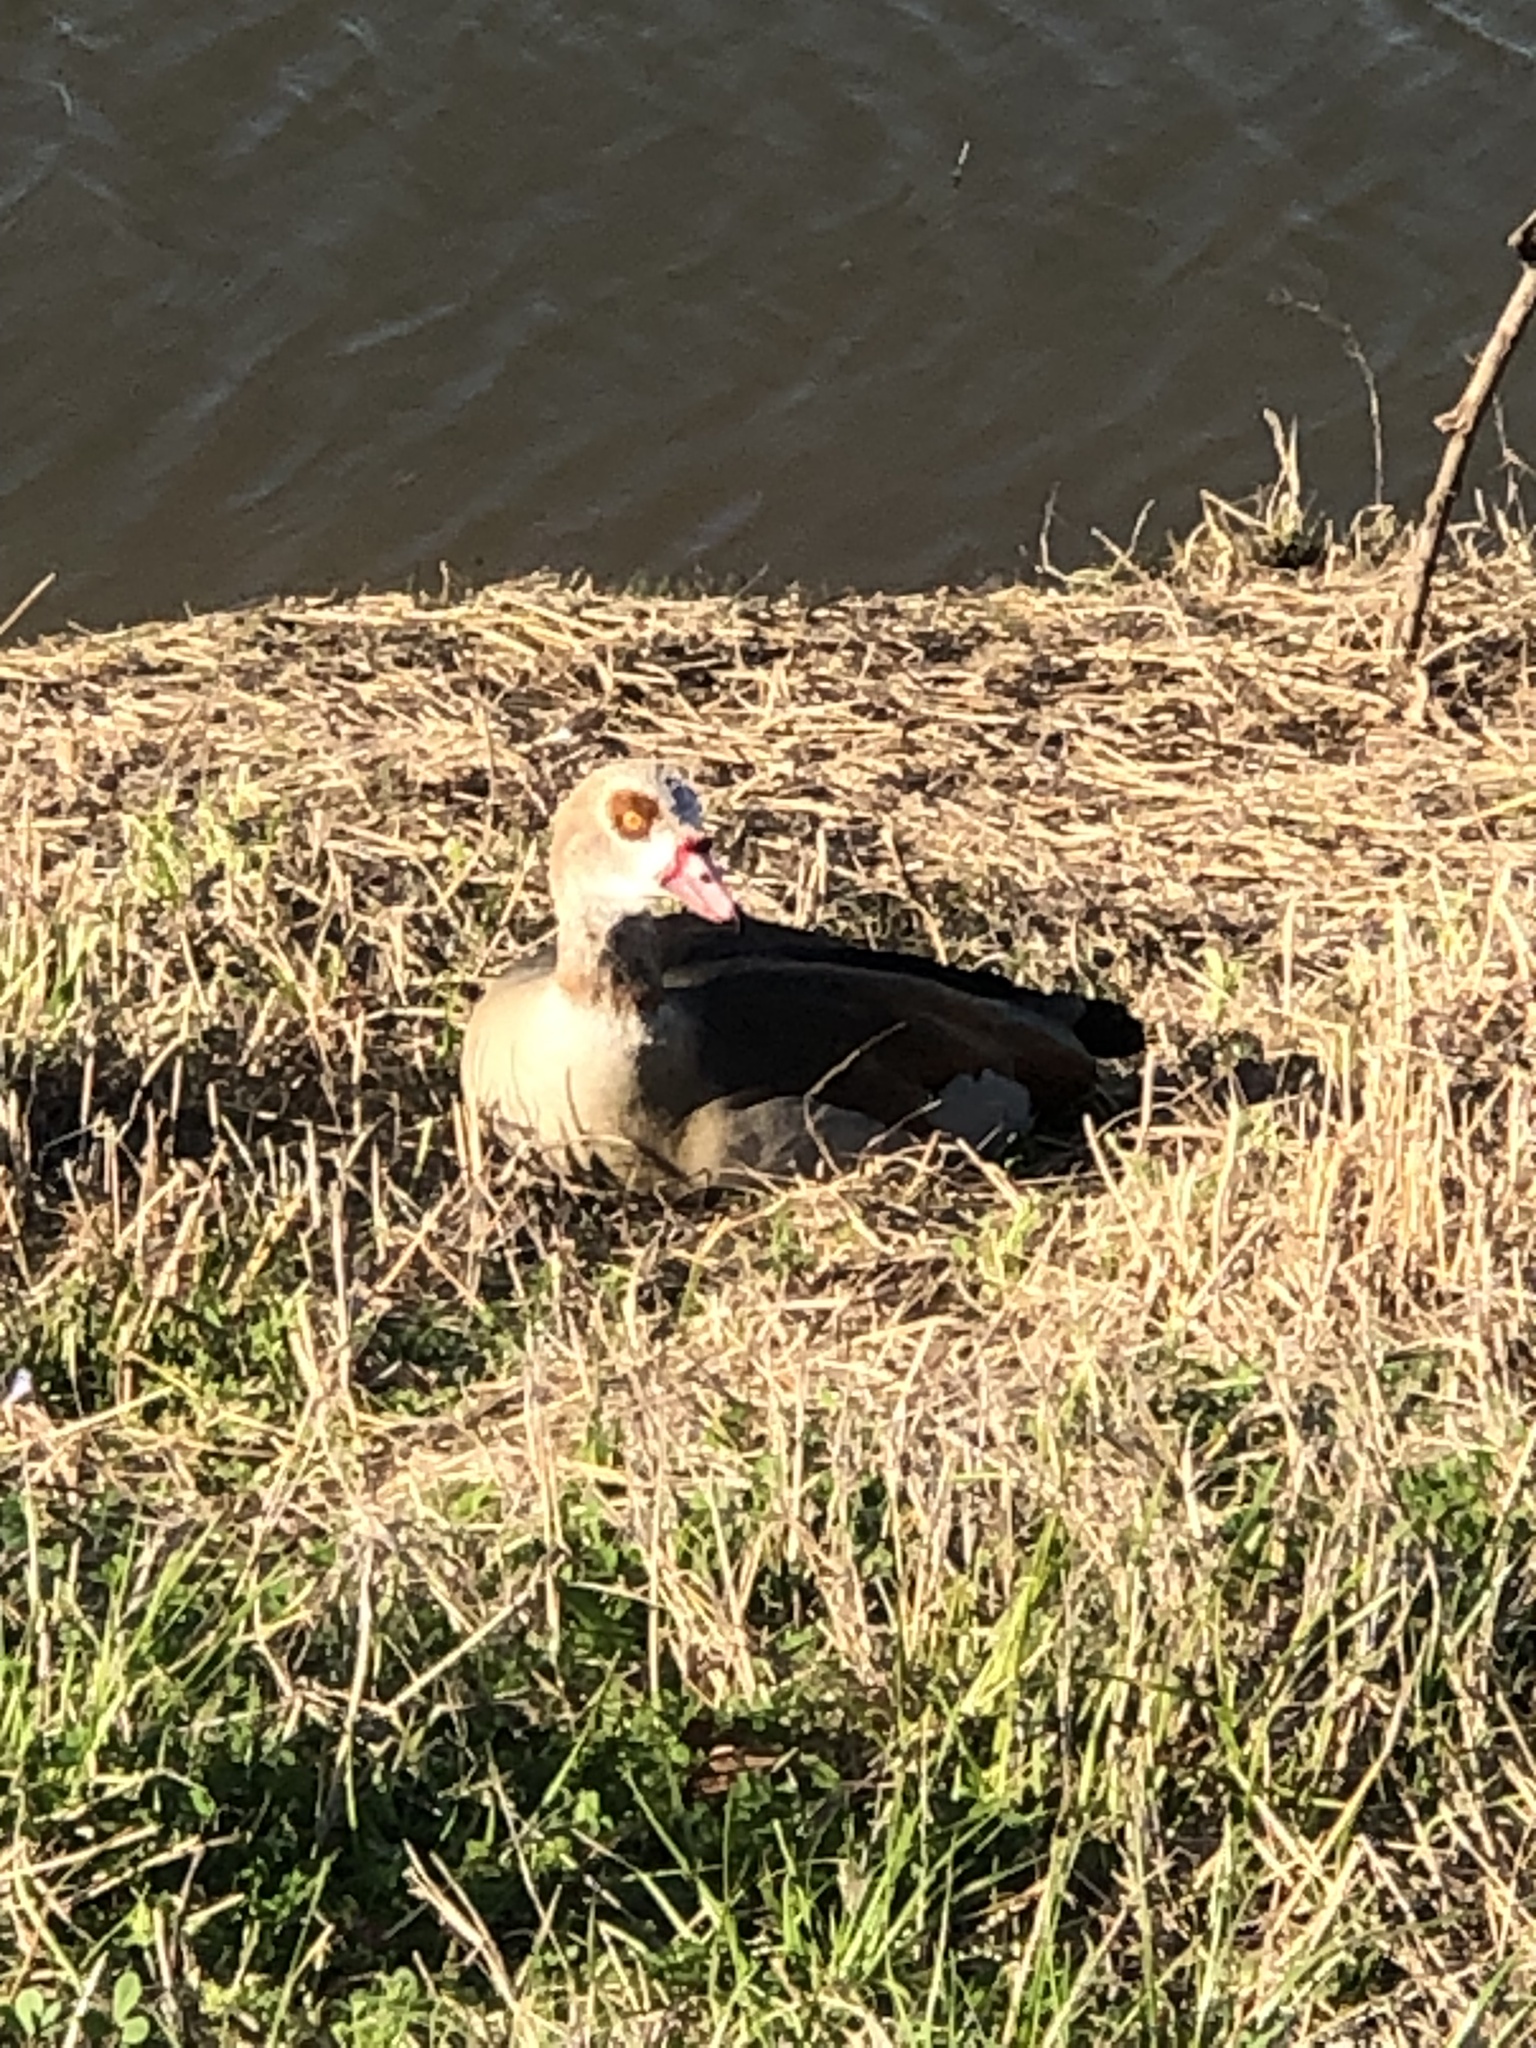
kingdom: Animalia
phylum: Chordata
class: Aves
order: Anseriformes
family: Anatidae
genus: Alopochen
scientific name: Alopochen aegyptiaca
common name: Egyptian goose
